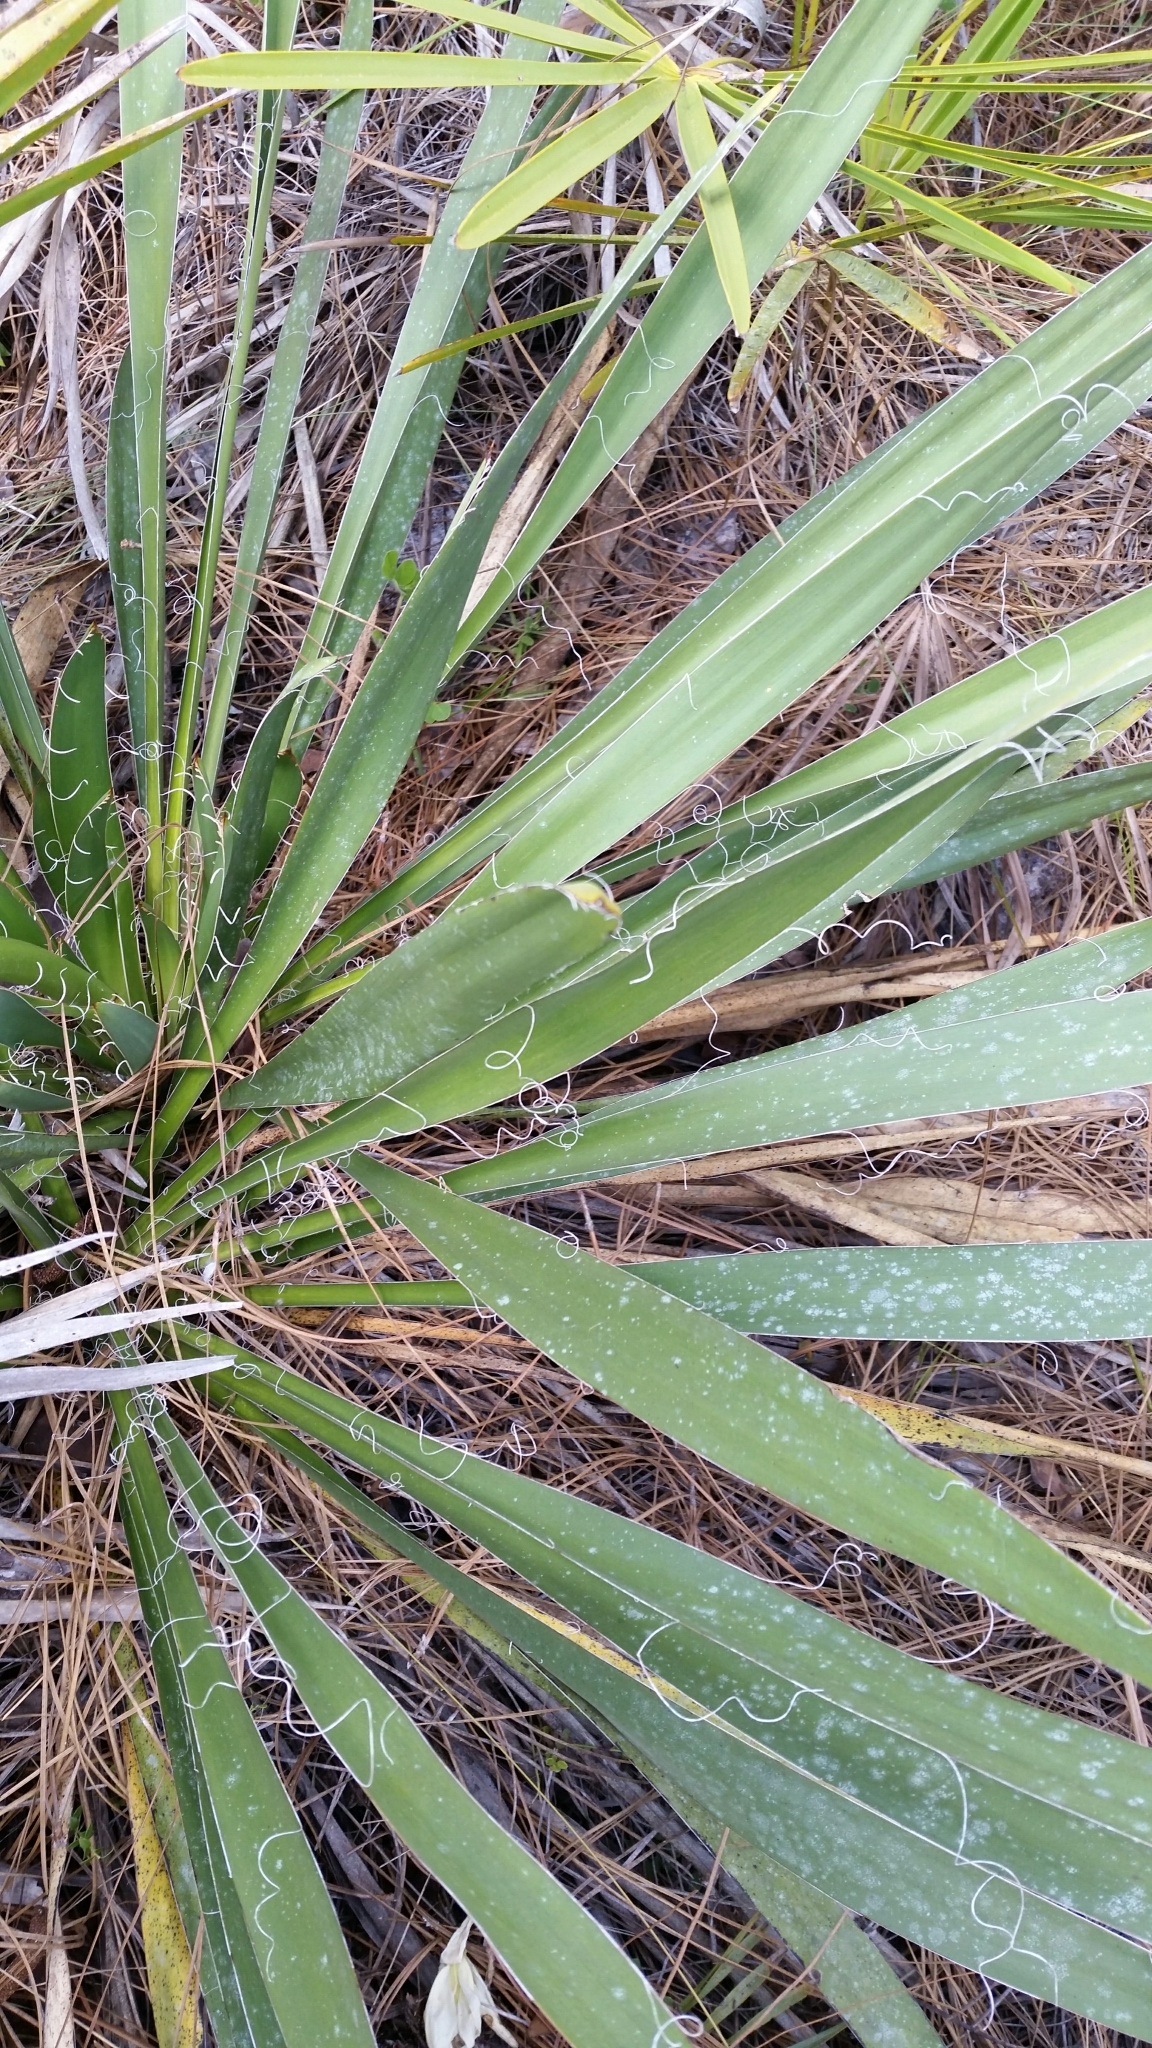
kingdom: Plantae
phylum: Tracheophyta
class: Liliopsida
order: Asparagales
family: Asparagaceae
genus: Yucca
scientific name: Yucca filamentosa
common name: Adam's-needle
